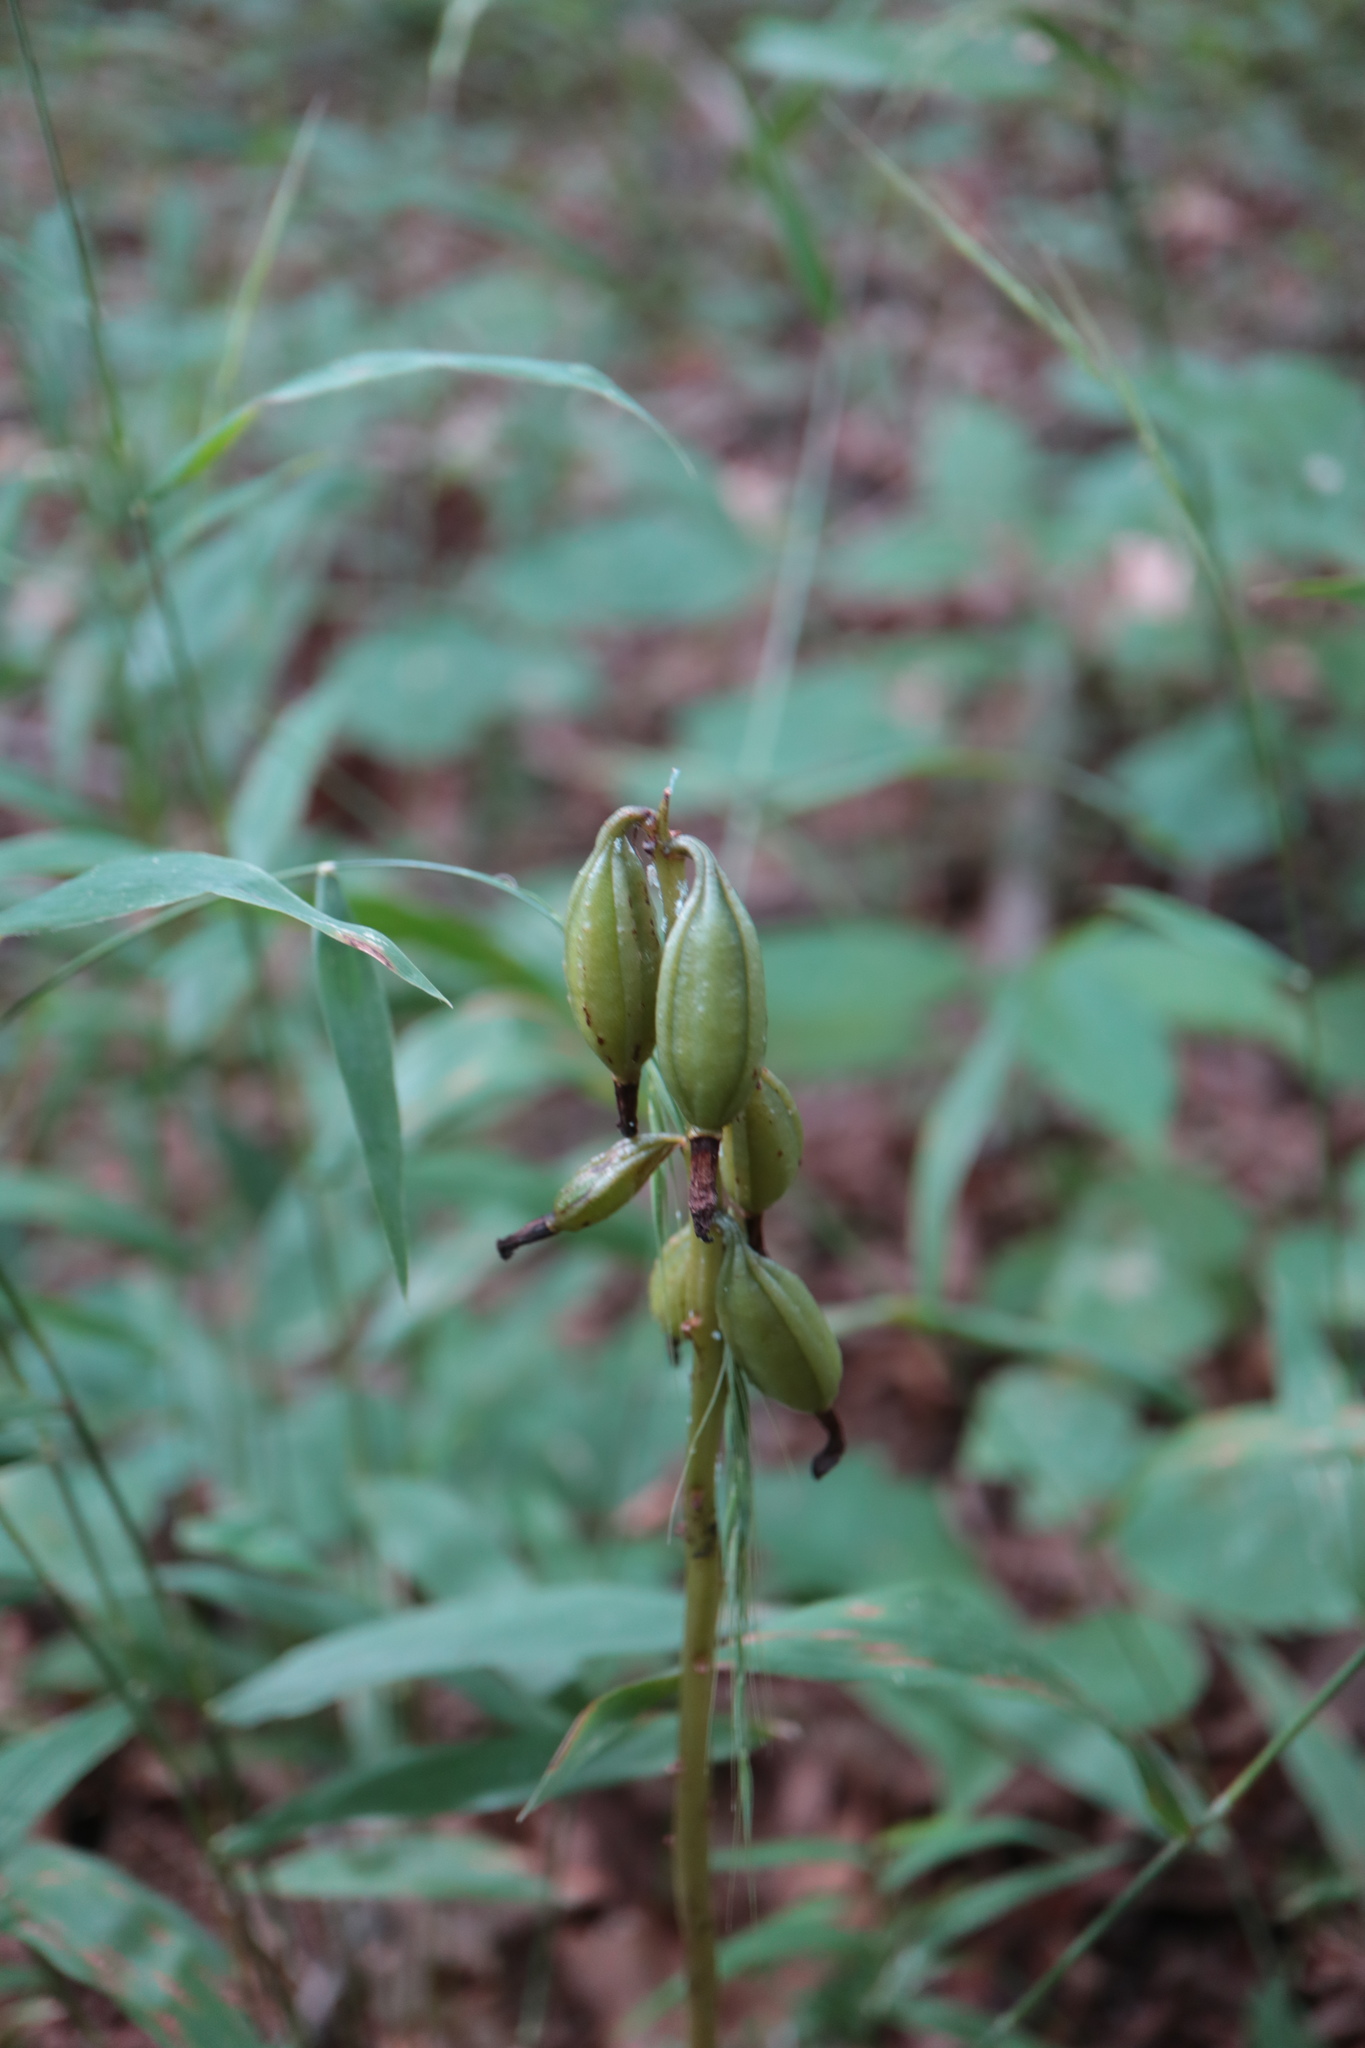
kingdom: Plantae
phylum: Tracheophyta
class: Liliopsida
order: Asparagales
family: Orchidaceae
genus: Aplectrum
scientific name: Aplectrum hyemale
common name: Adam-and-eve
